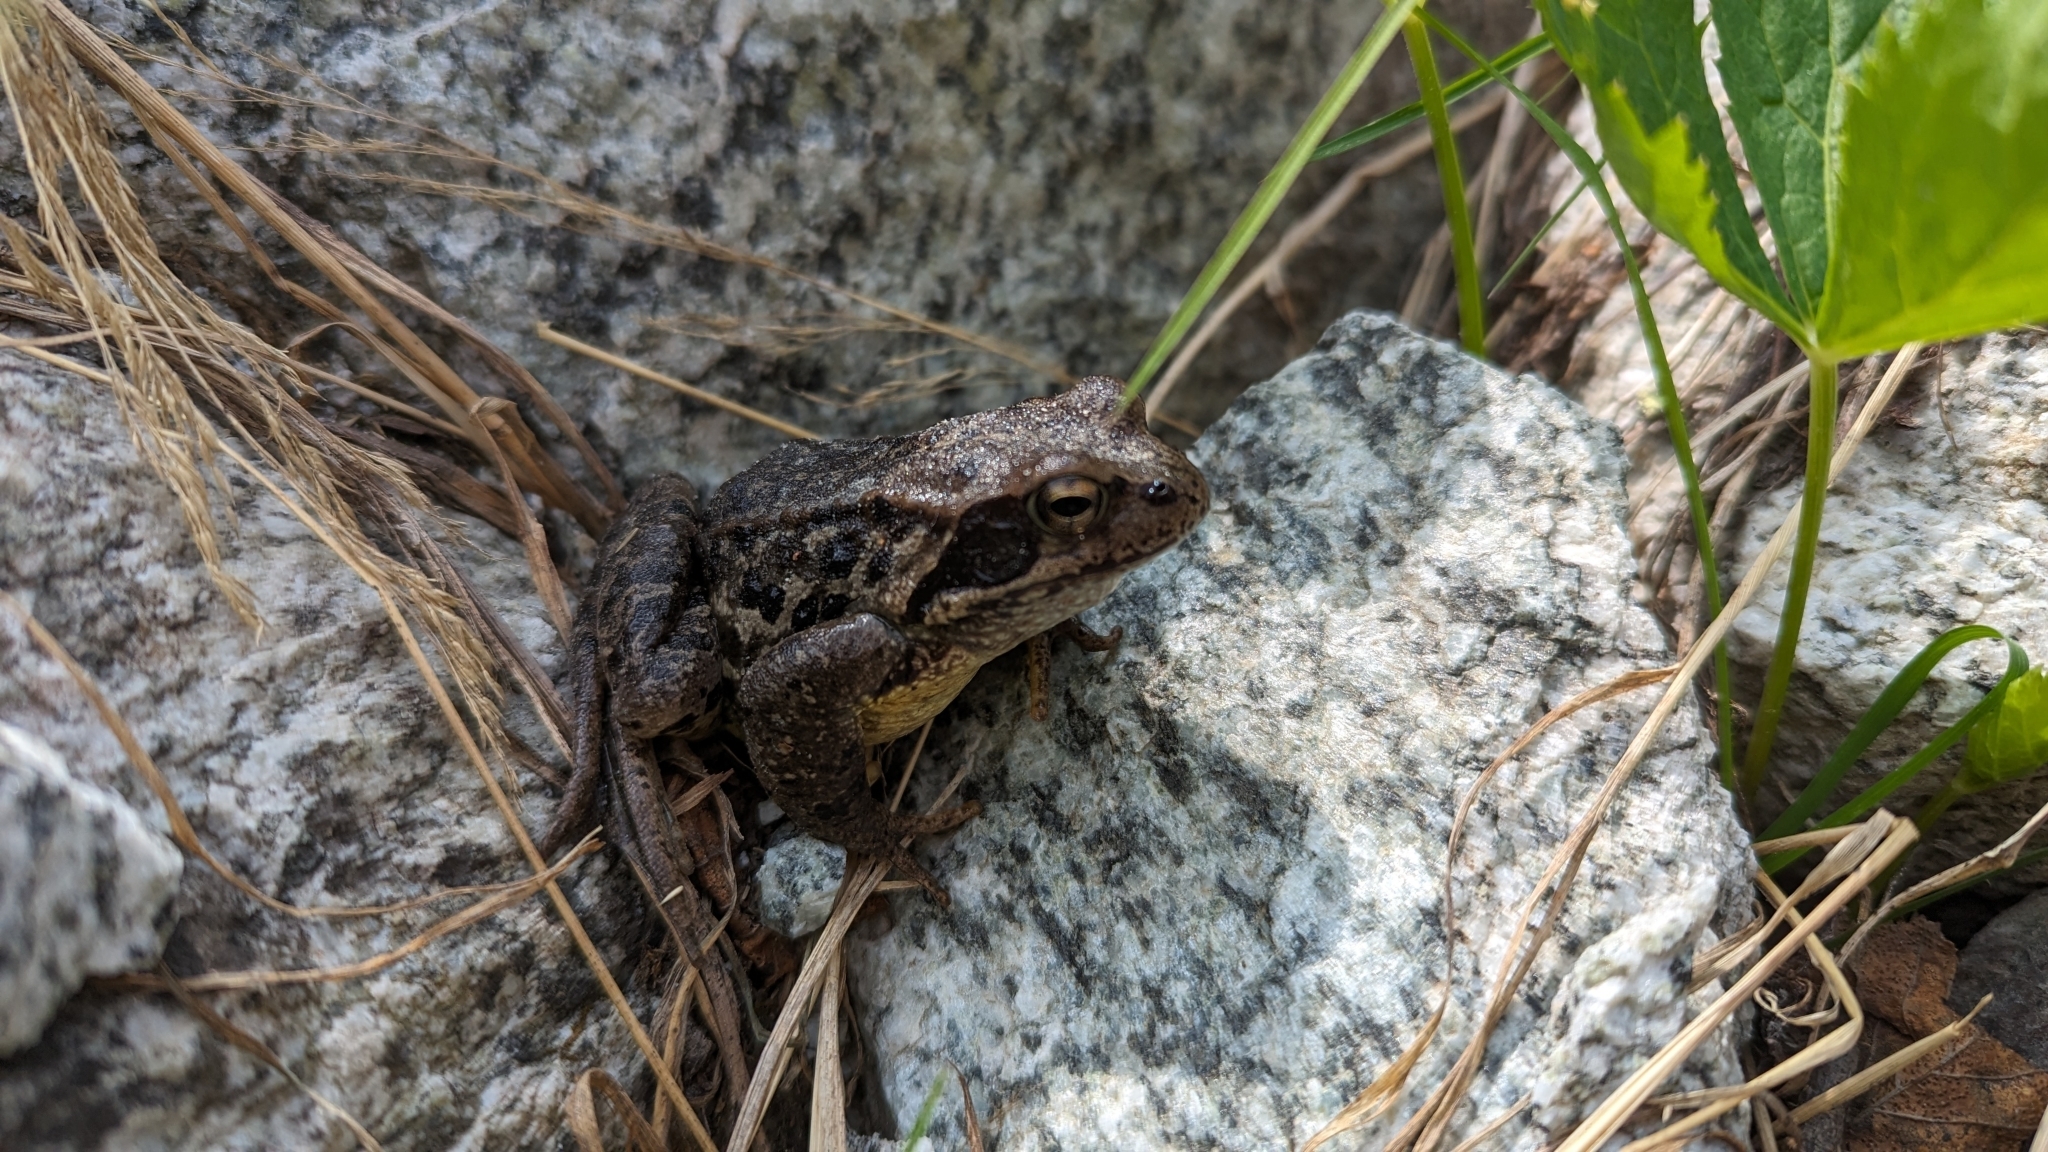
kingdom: Animalia
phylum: Chordata
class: Amphibia
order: Anura
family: Ranidae
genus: Rana
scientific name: Rana temporaria
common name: Common frog
